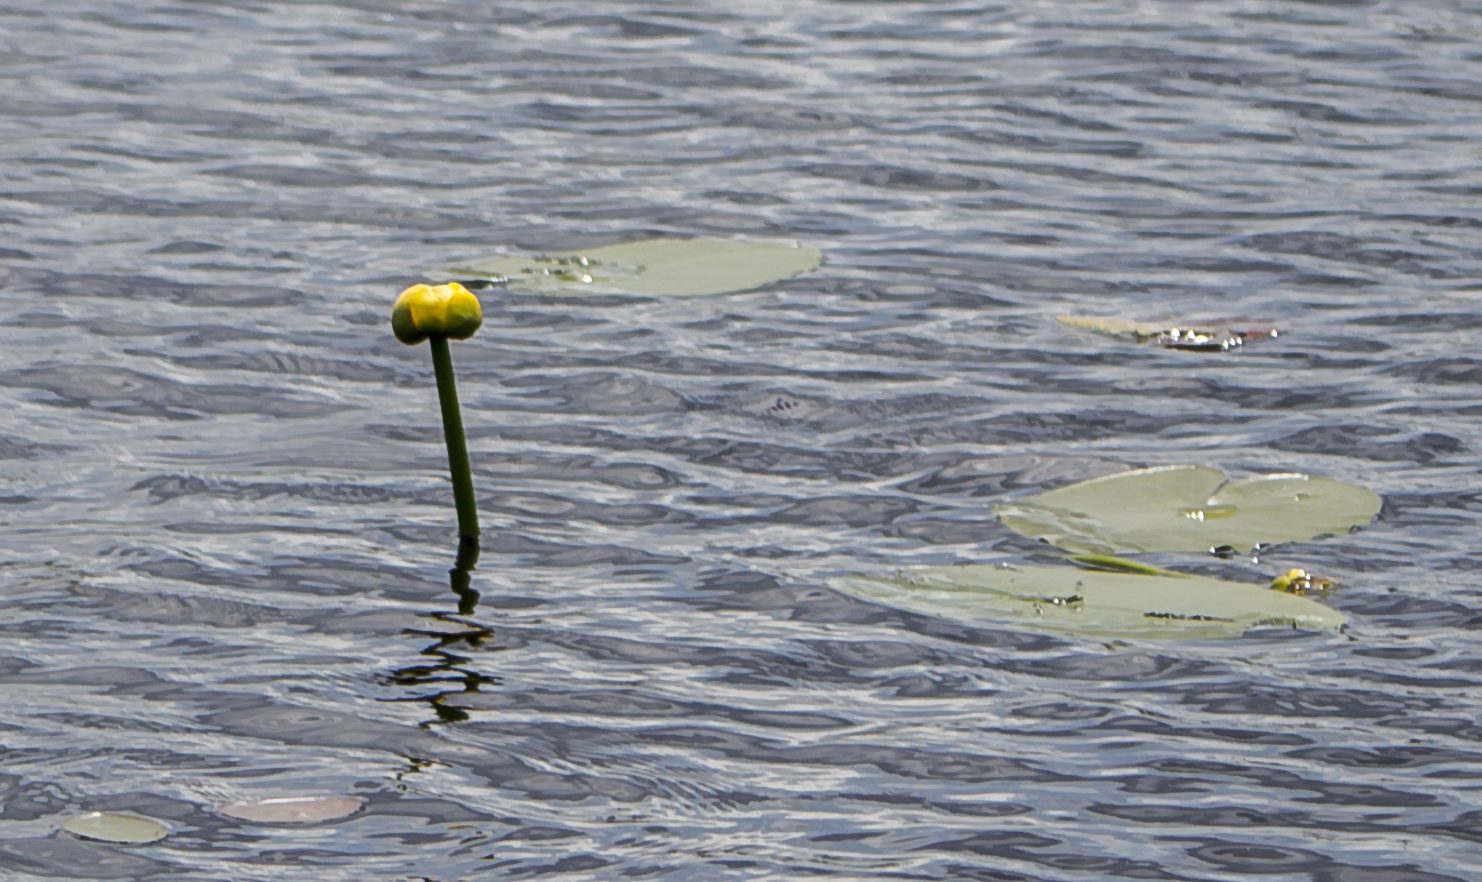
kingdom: Plantae
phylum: Tracheophyta
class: Magnoliopsida
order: Nymphaeales
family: Nymphaeaceae
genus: Nuphar
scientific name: Nuphar variegata
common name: Beaver-root
